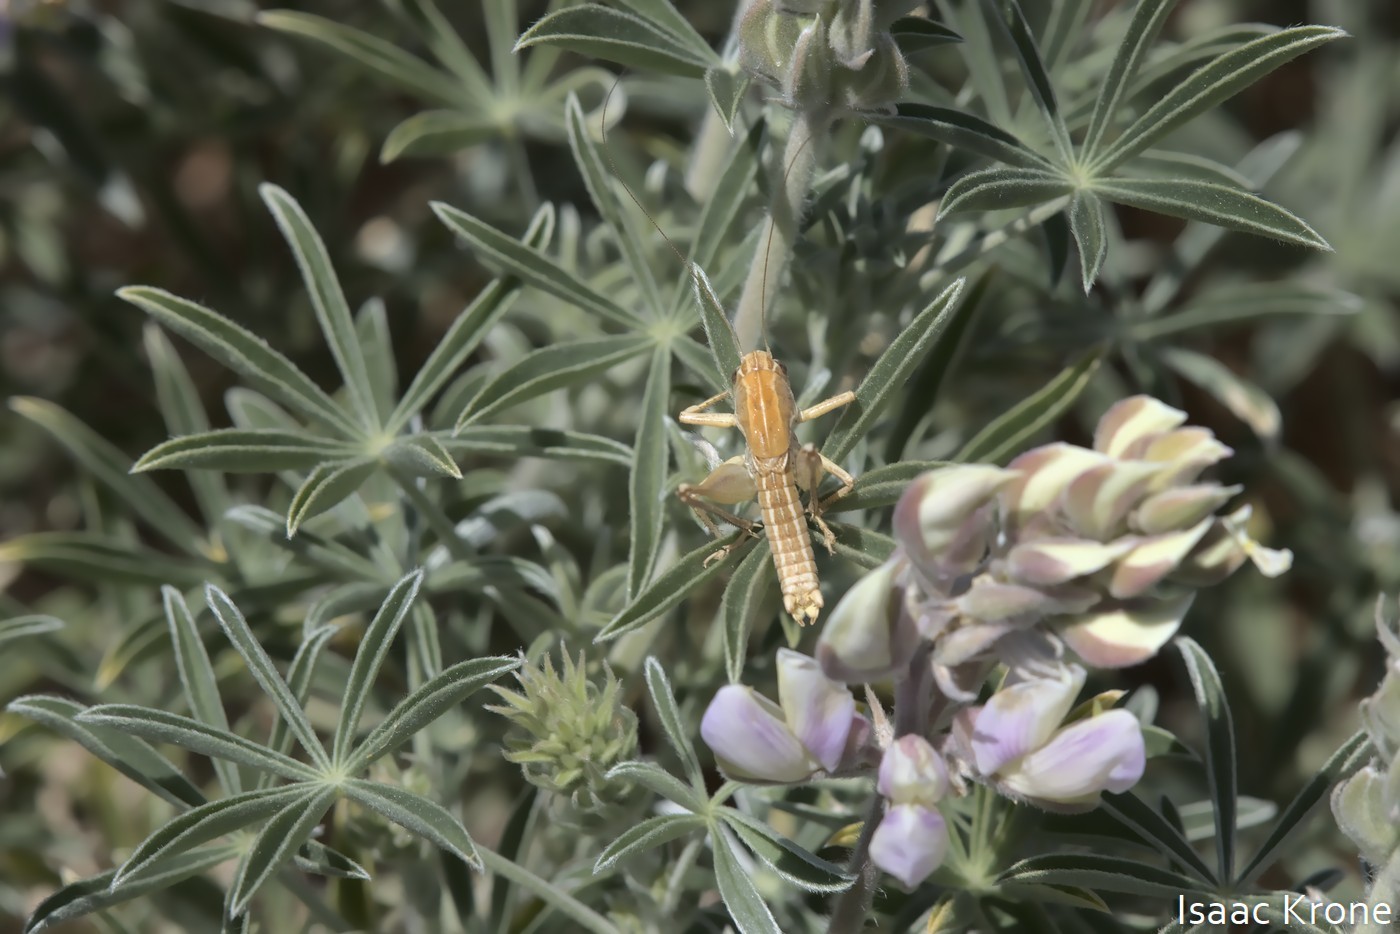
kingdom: Animalia
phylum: Arthropoda
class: Insecta
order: Orthoptera
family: Tettigoniidae
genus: Decticita
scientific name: Decticita brevicauda
